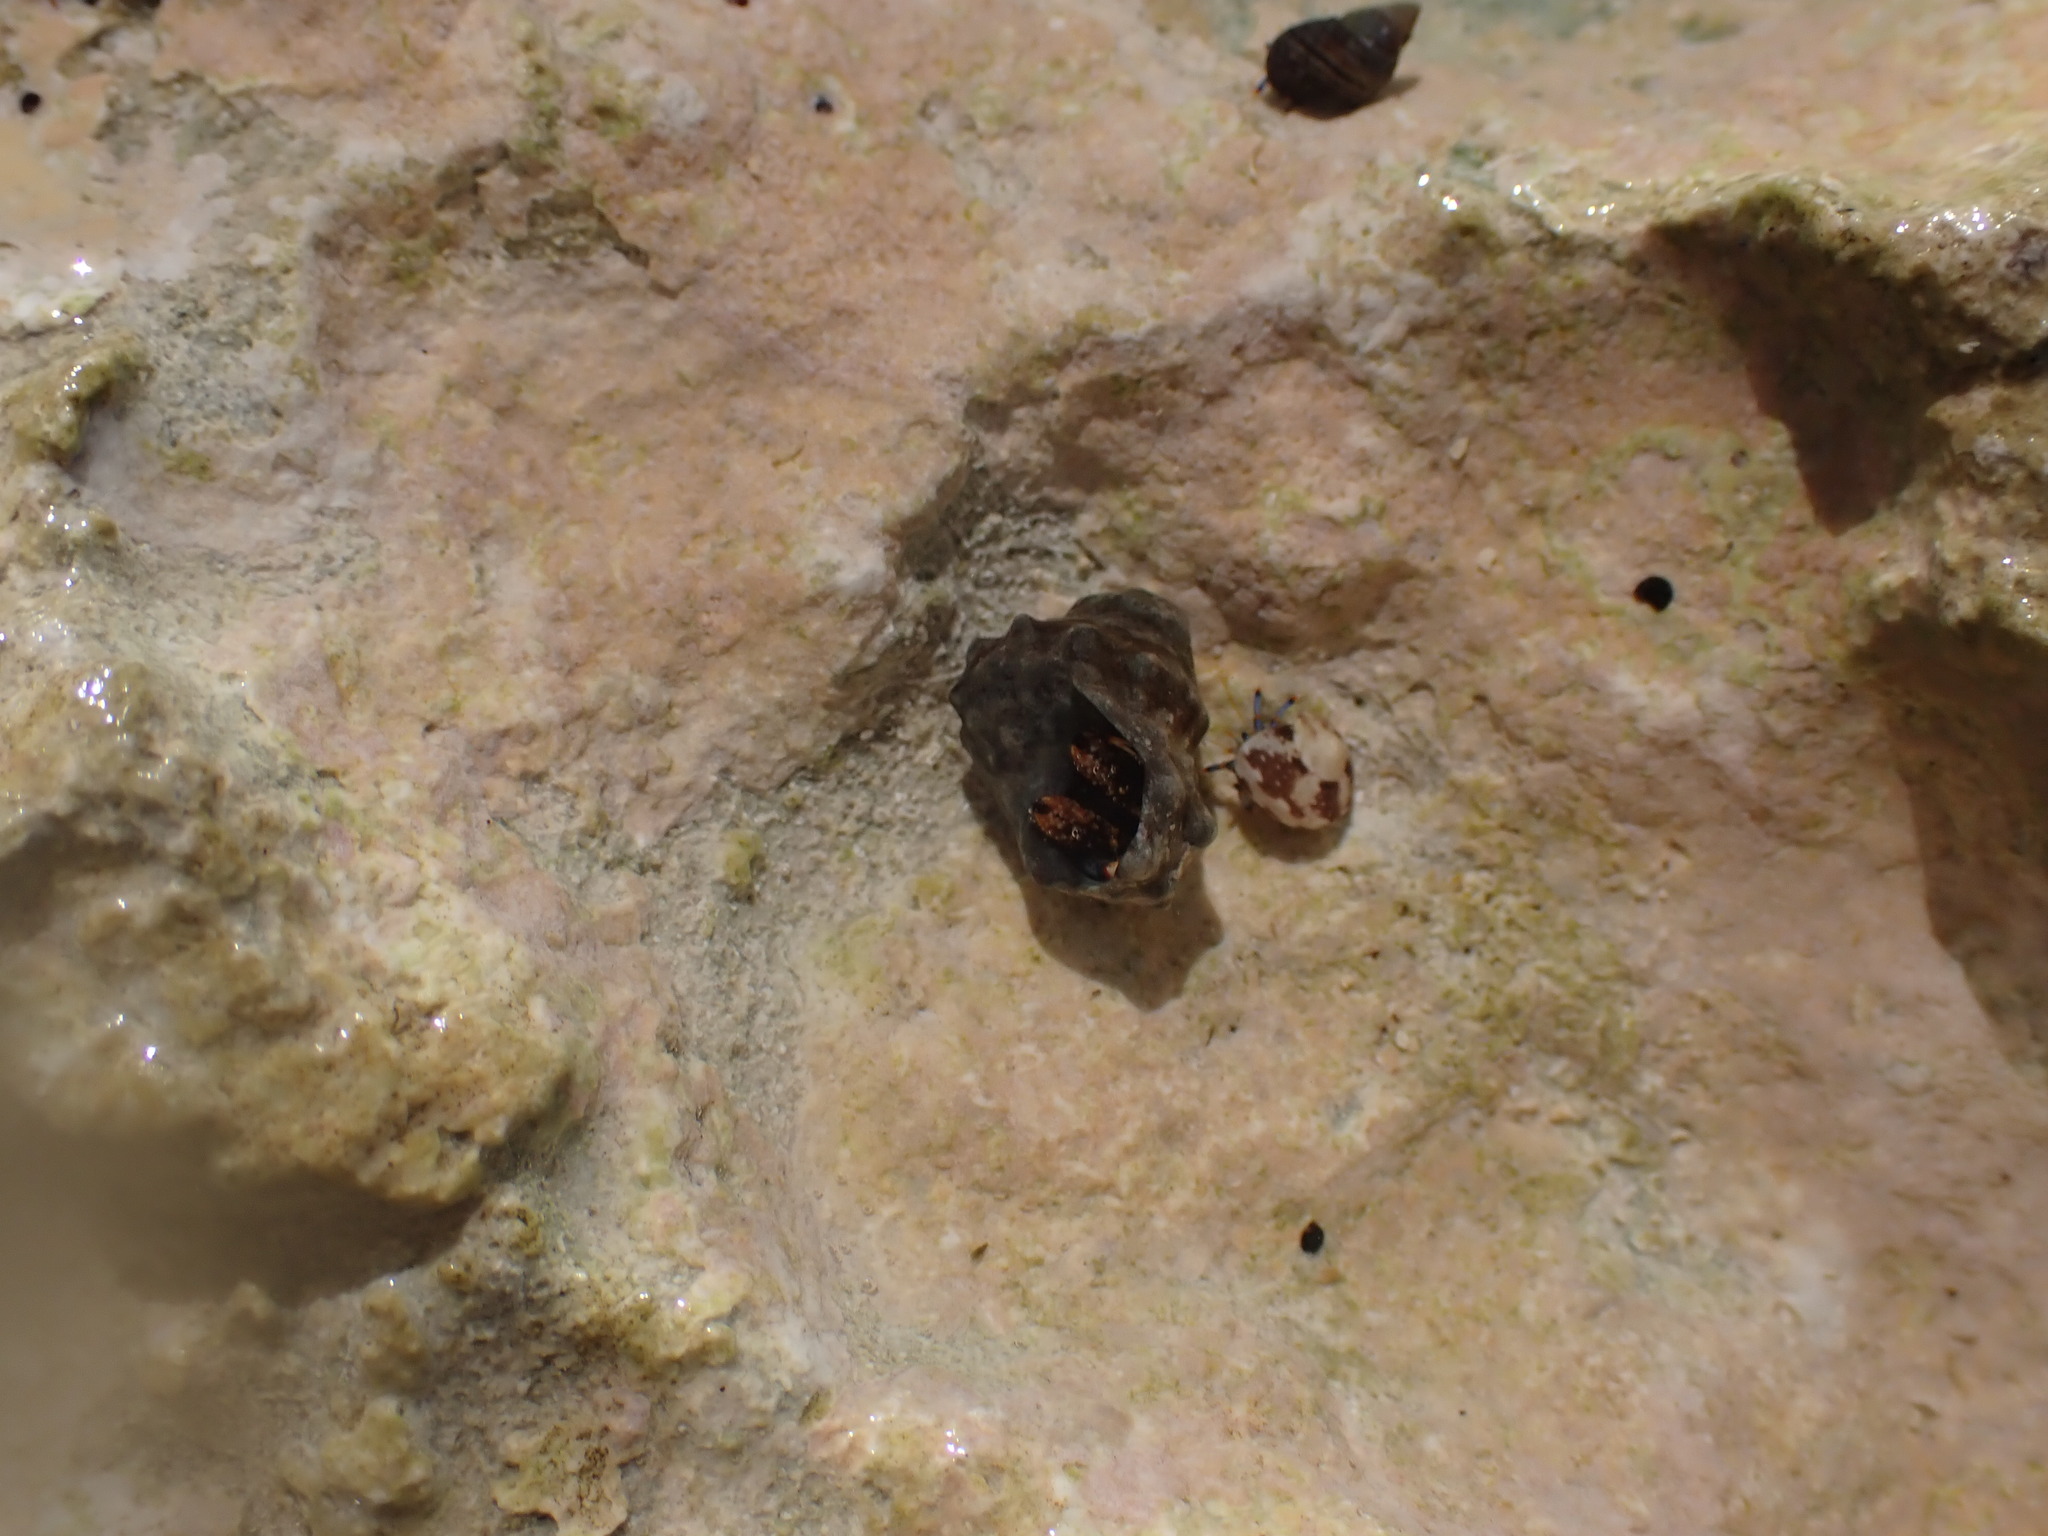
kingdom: Animalia
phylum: Arthropoda
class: Malacostraca
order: Decapoda
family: Diogenidae
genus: Clibanarius
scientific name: Clibanarius tricolor
